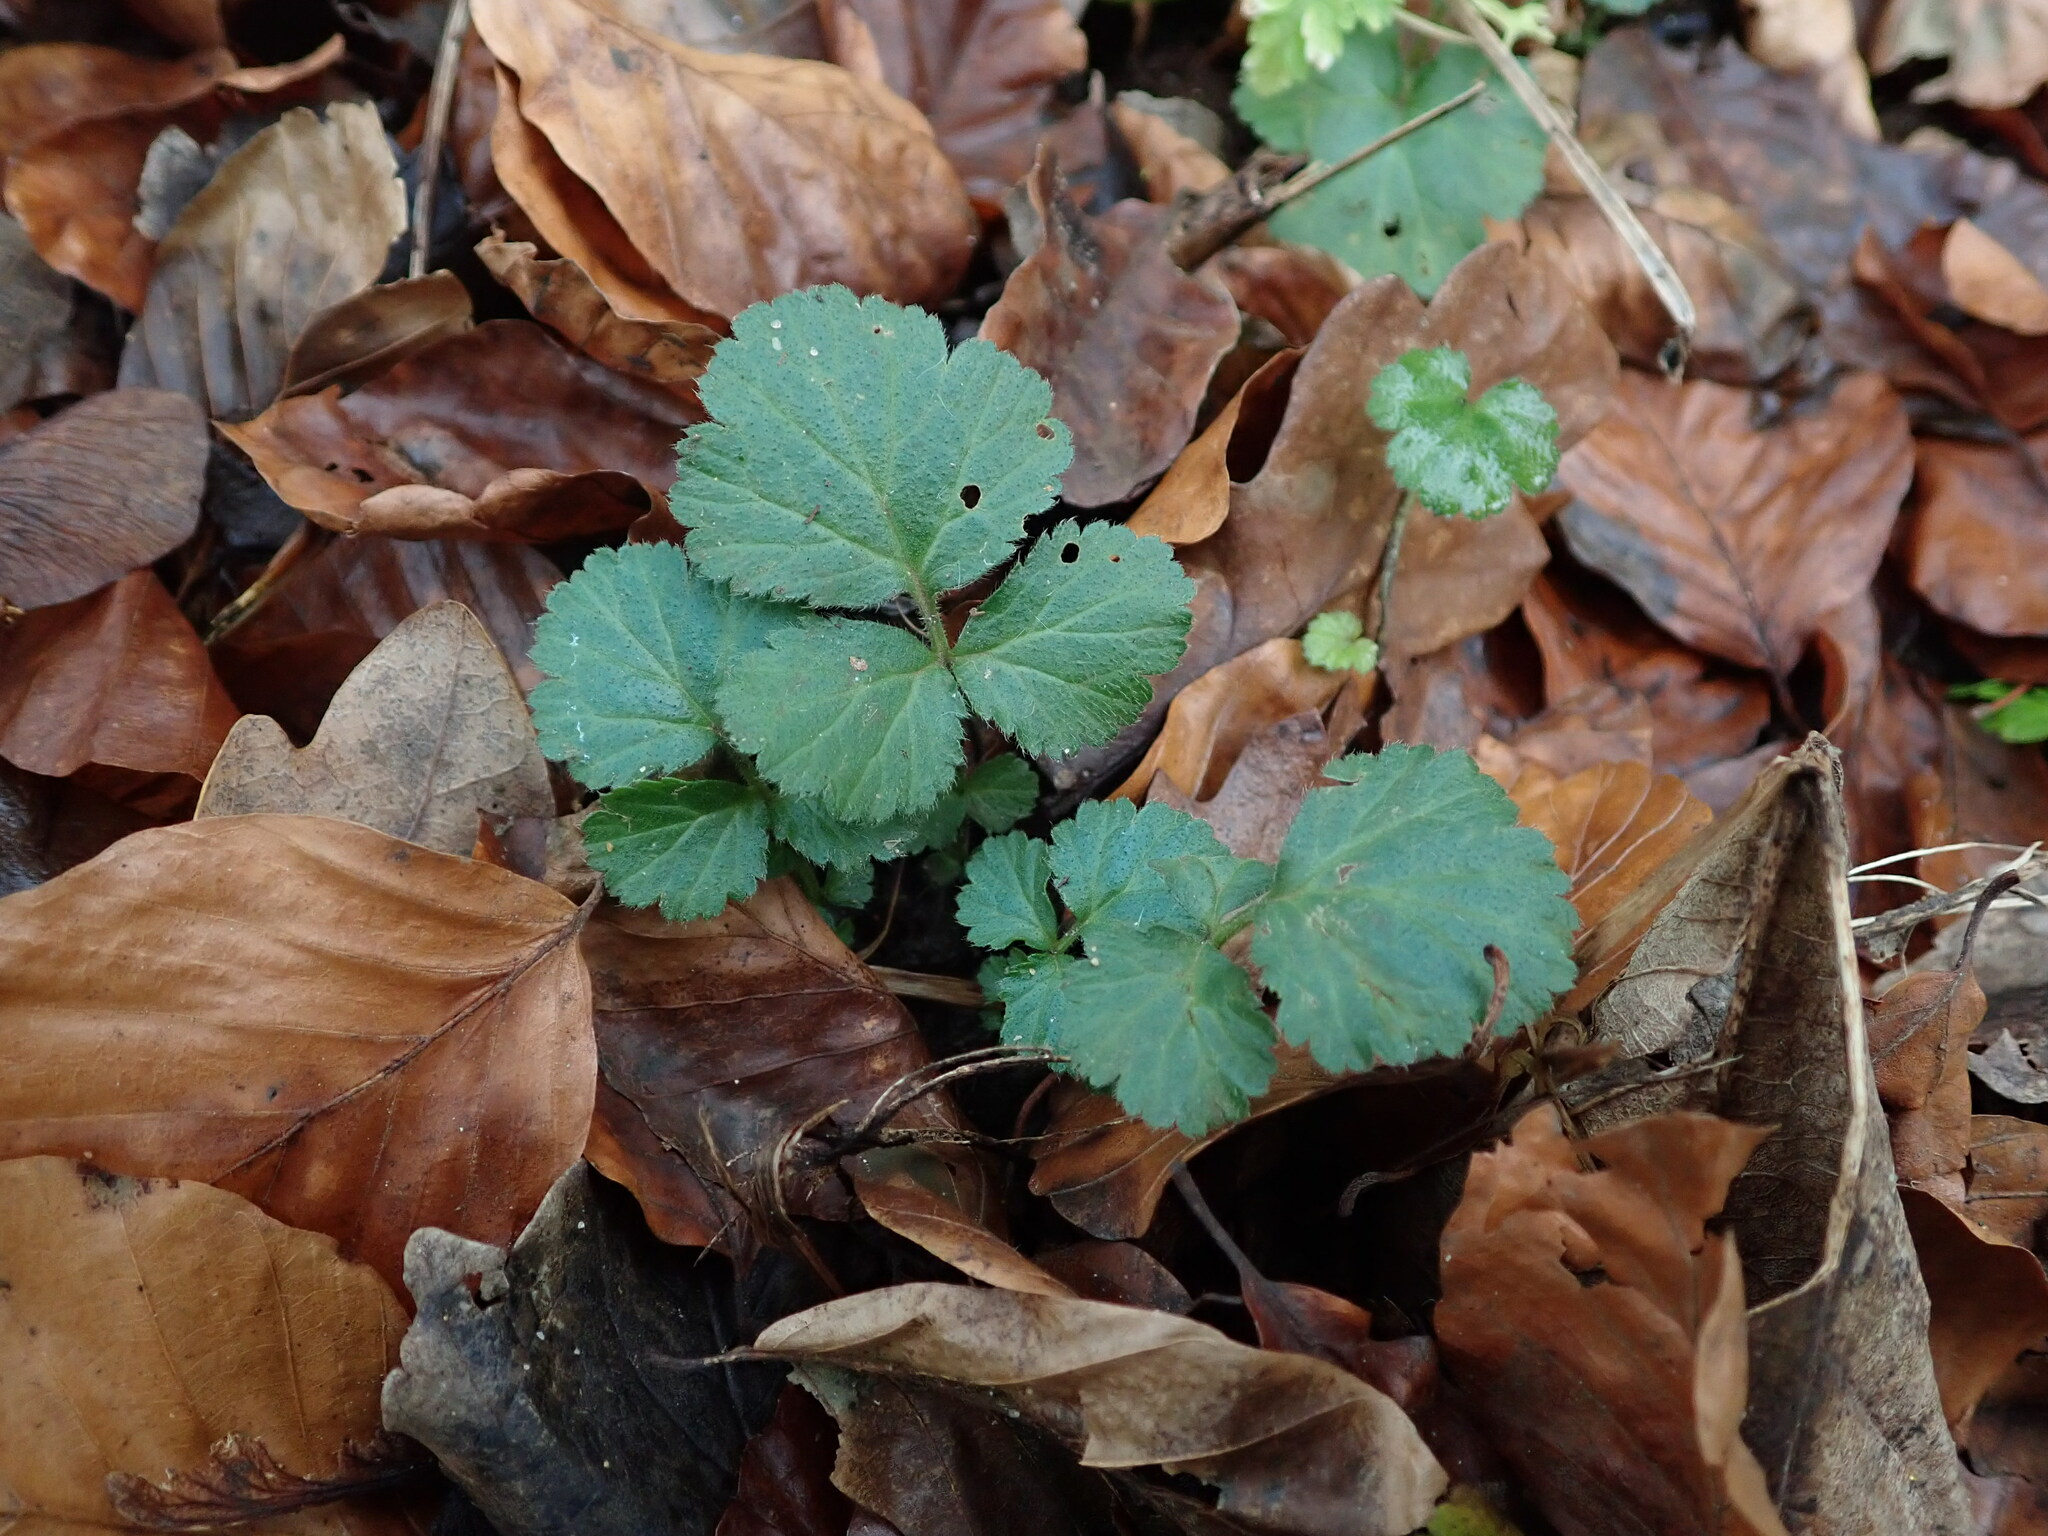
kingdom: Plantae
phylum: Tracheophyta
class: Magnoliopsida
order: Rosales
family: Rosaceae
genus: Geum
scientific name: Geum urbanum
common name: Wood avens
